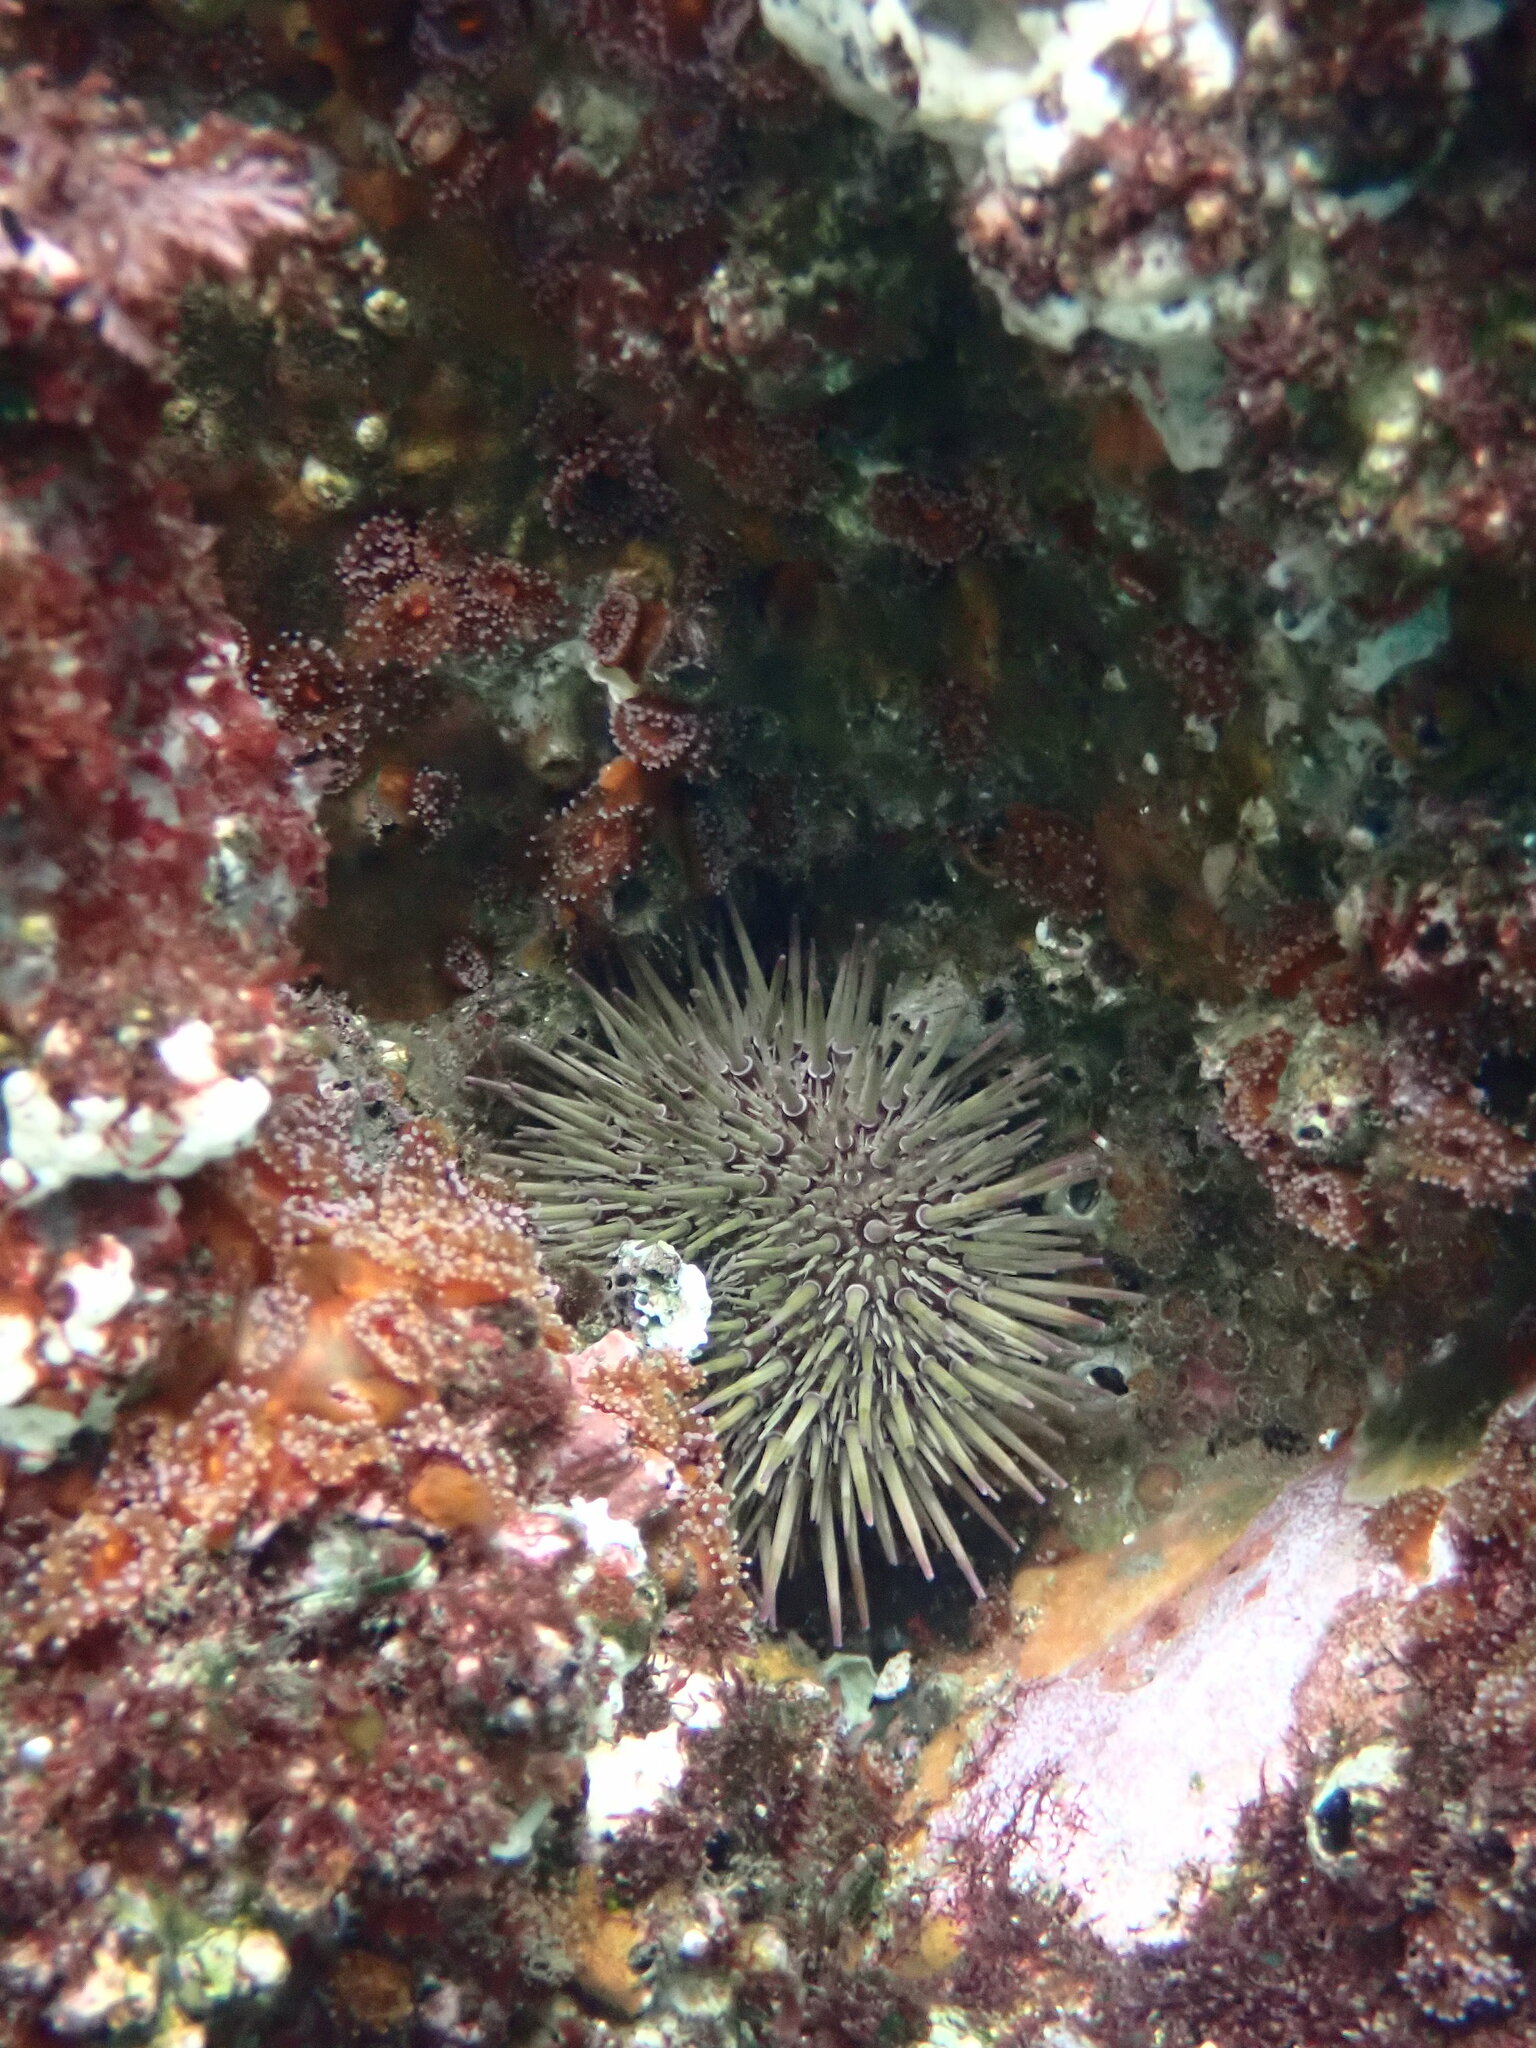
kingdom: Animalia
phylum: Echinodermata
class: Echinoidea
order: Camarodonta
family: Echinometridae
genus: Heliocidaris
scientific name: Heliocidaris erythrogramma
